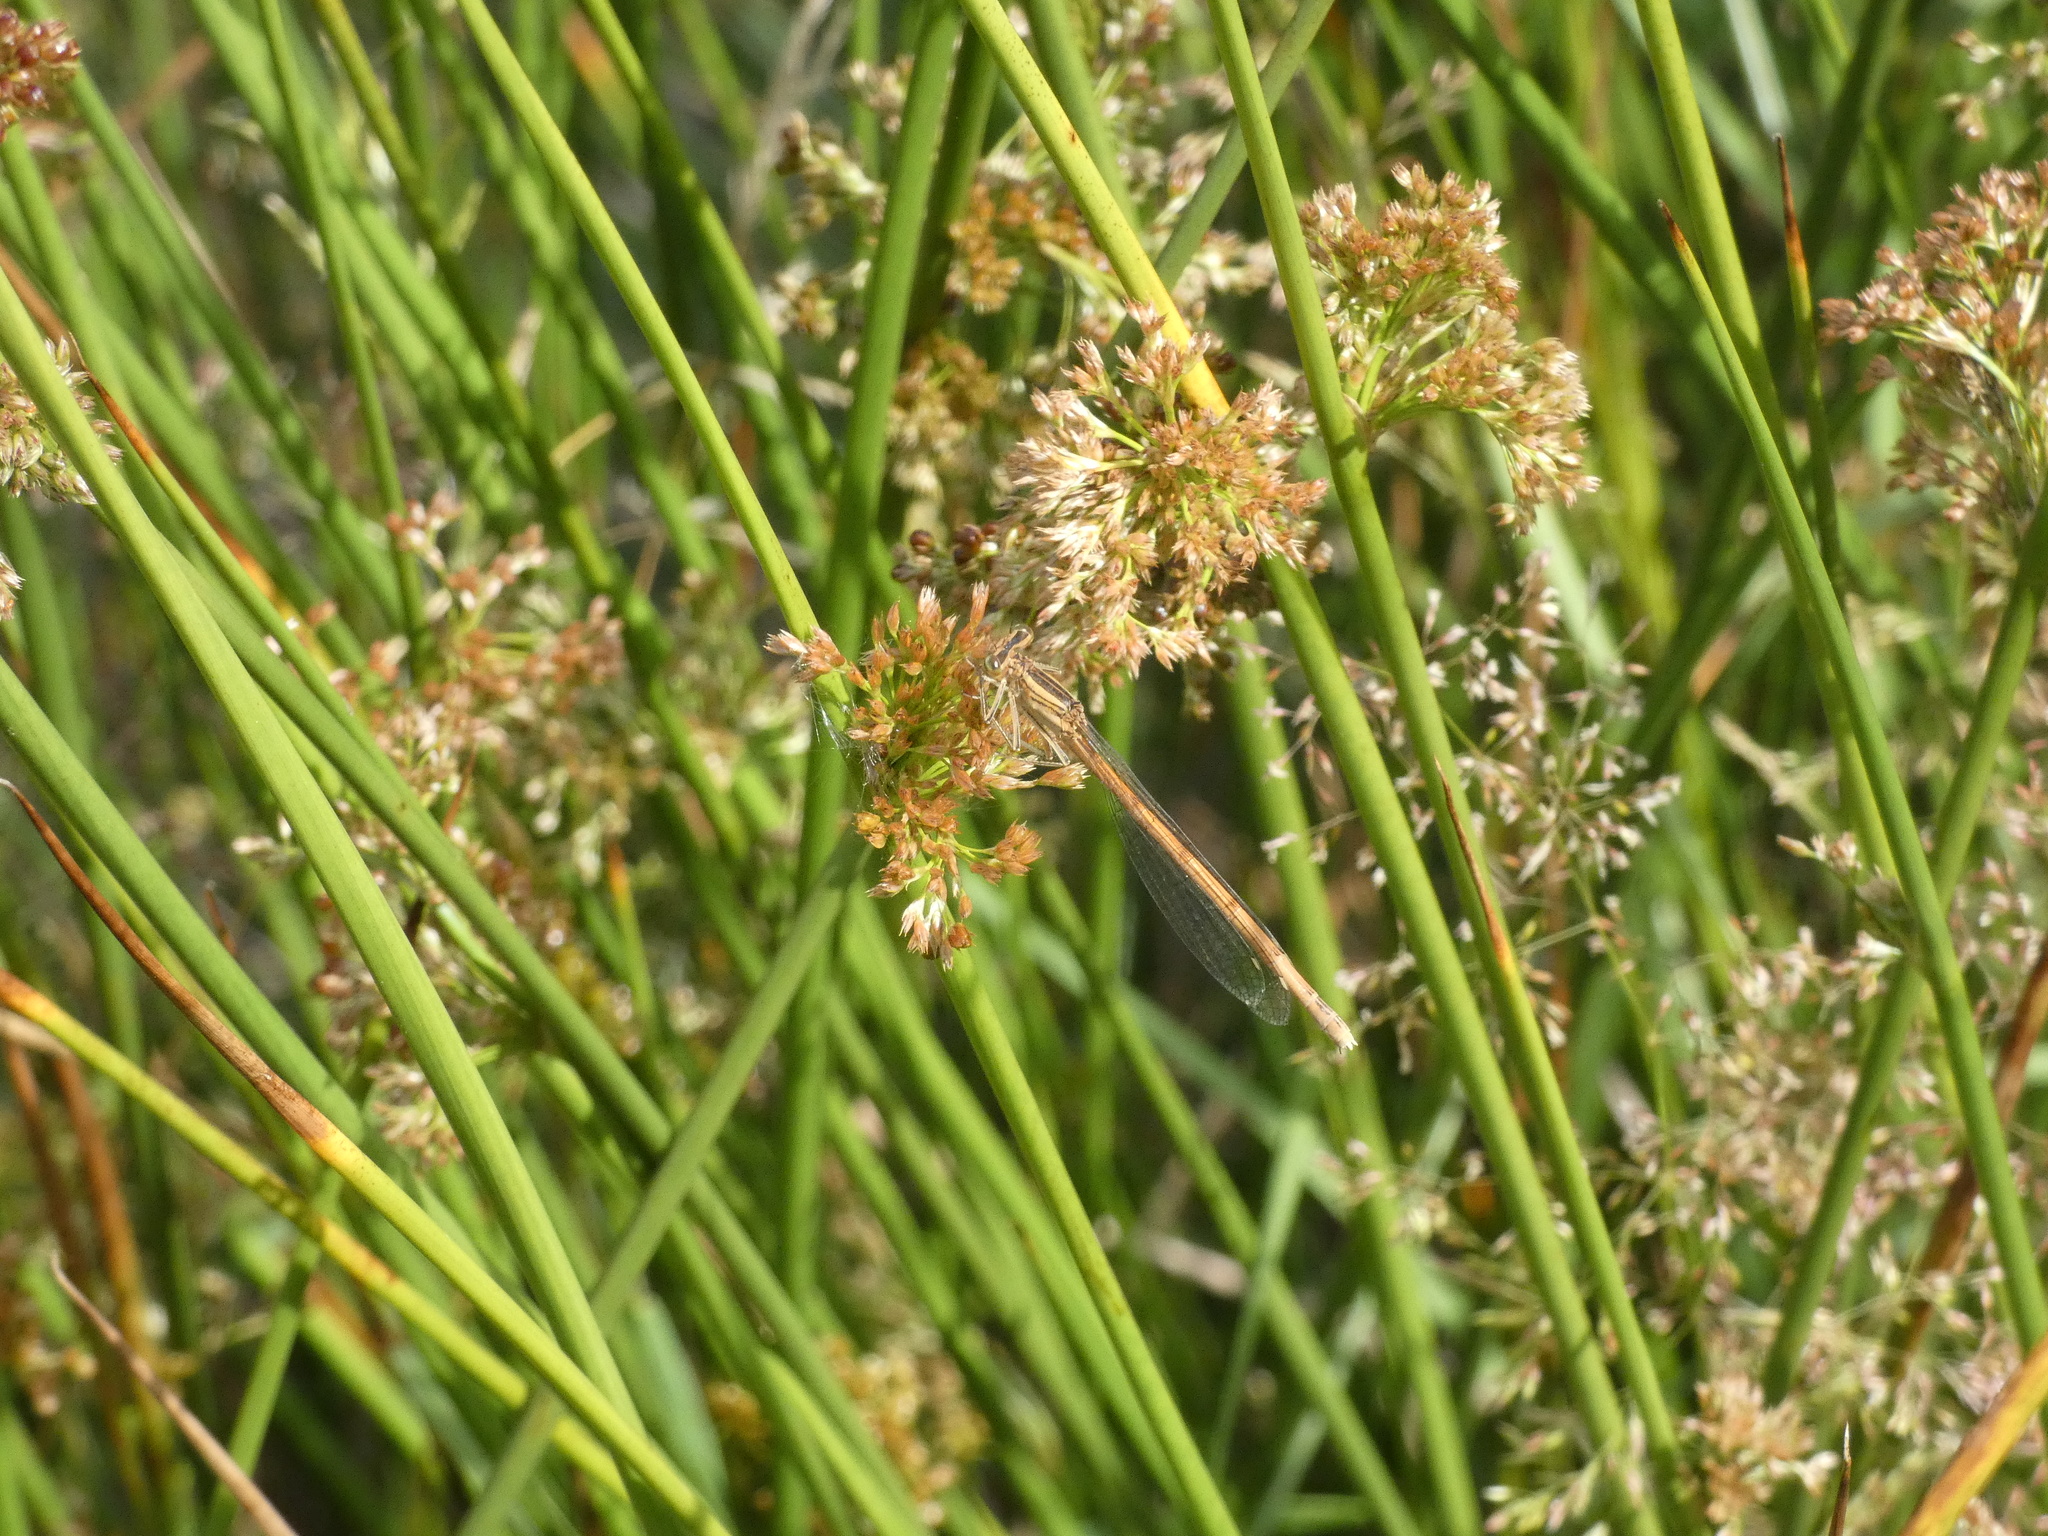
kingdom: Animalia
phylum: Arthropoda
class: Insecta
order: Odonata
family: Platycnemididae
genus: Platycnemis
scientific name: Platycnemis acutipennis
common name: Orange featherleg
